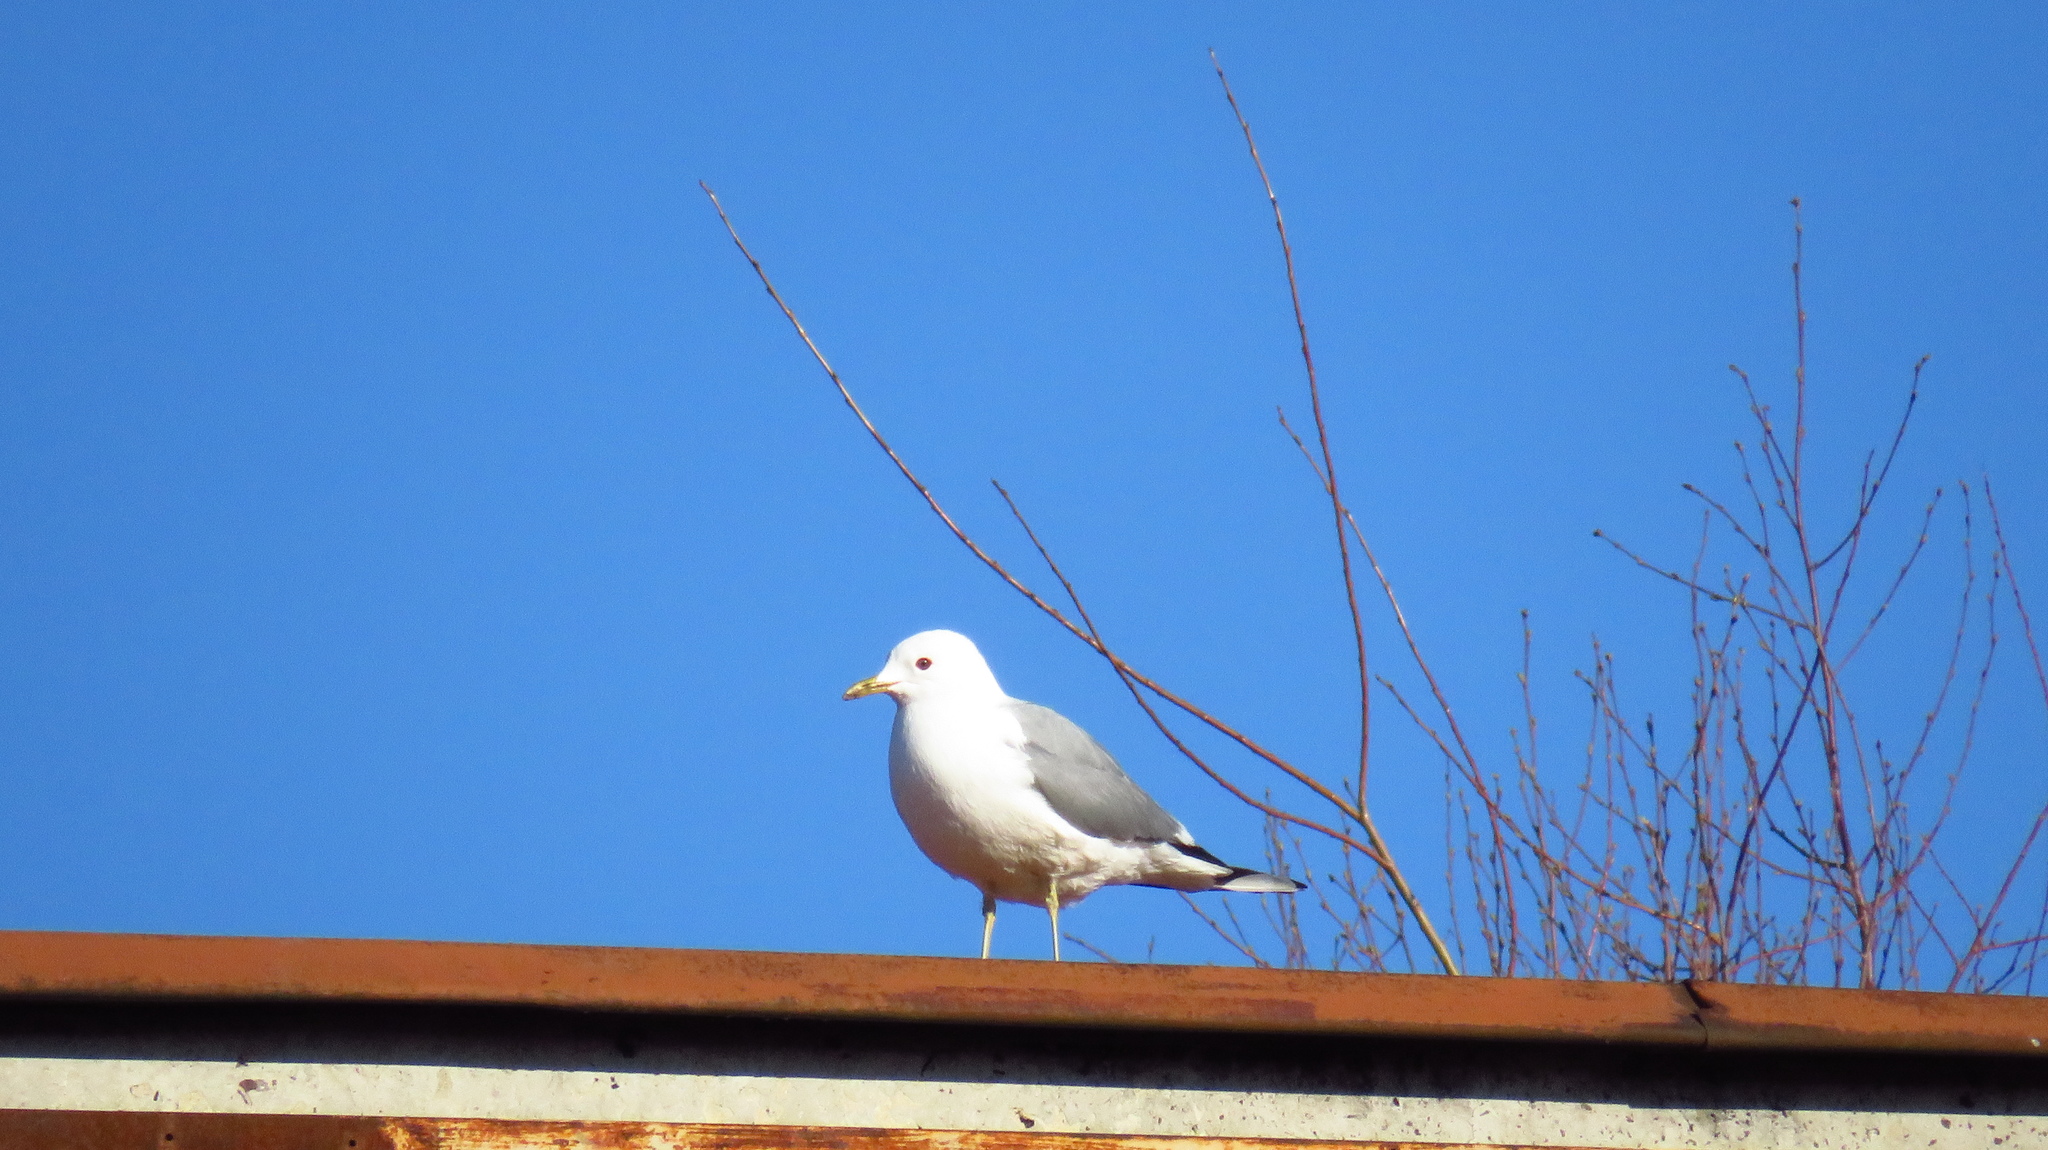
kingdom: Animalia
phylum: Chordata
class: Aves
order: Charadriiformes
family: Laridae
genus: Larus
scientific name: Larus canus
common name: Mew gull
